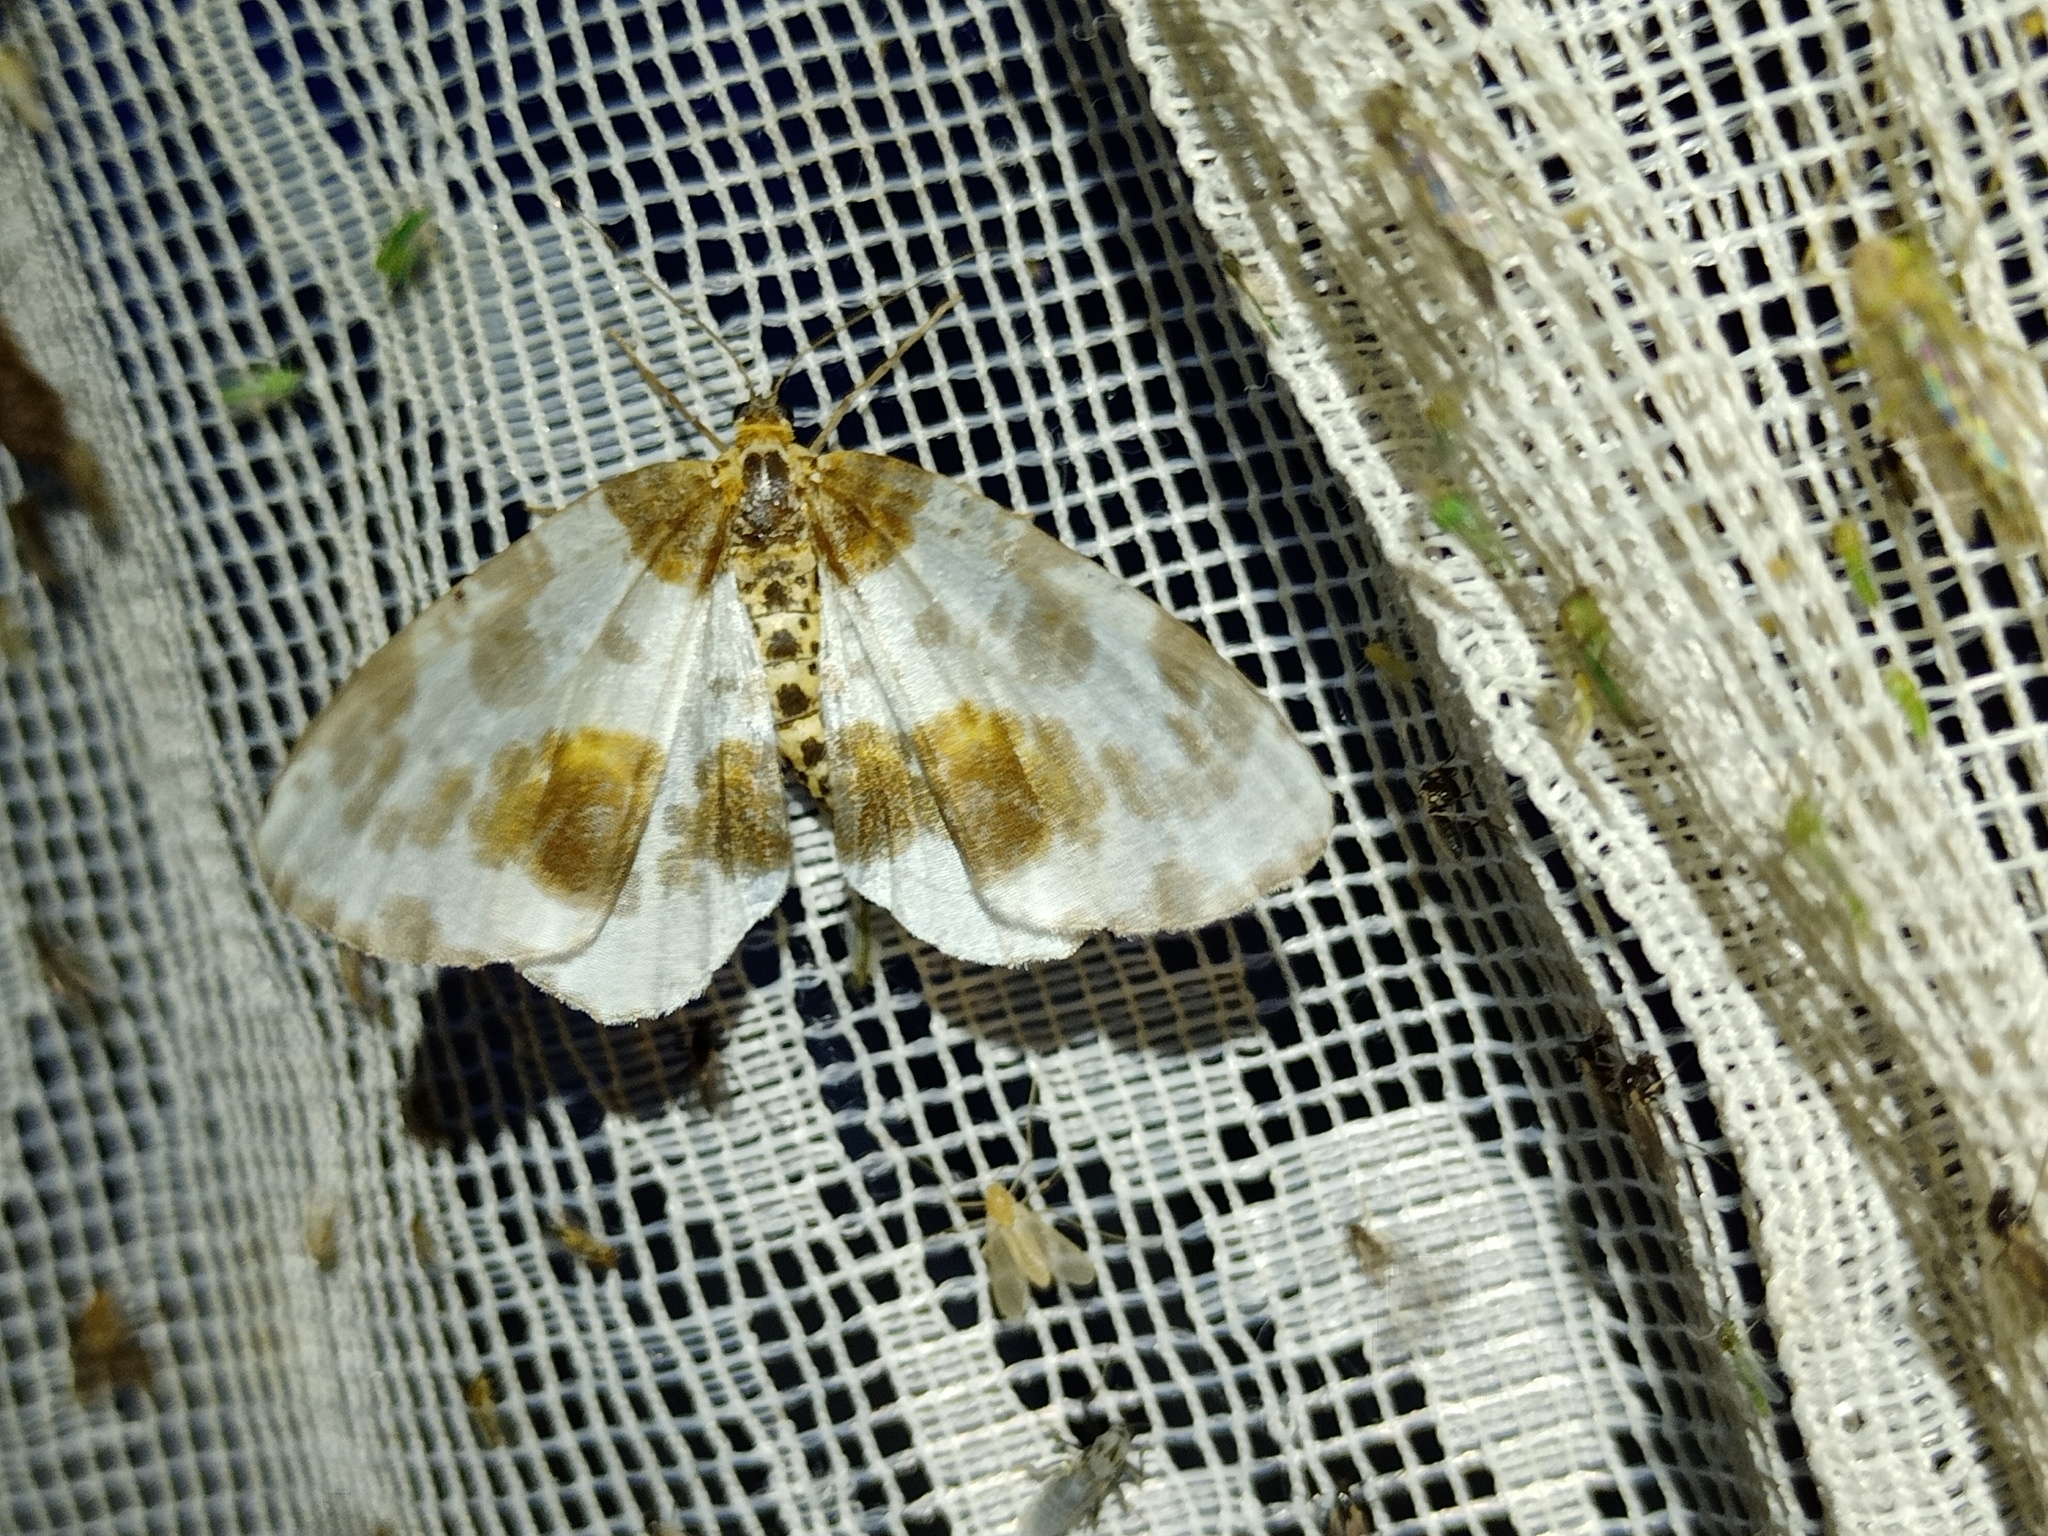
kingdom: Animalia
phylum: Arthropoda
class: Insecta
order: Lepidoptera
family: Geometridae
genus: Abraxas
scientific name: Abraxas sylvata
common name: Clouded magpie
